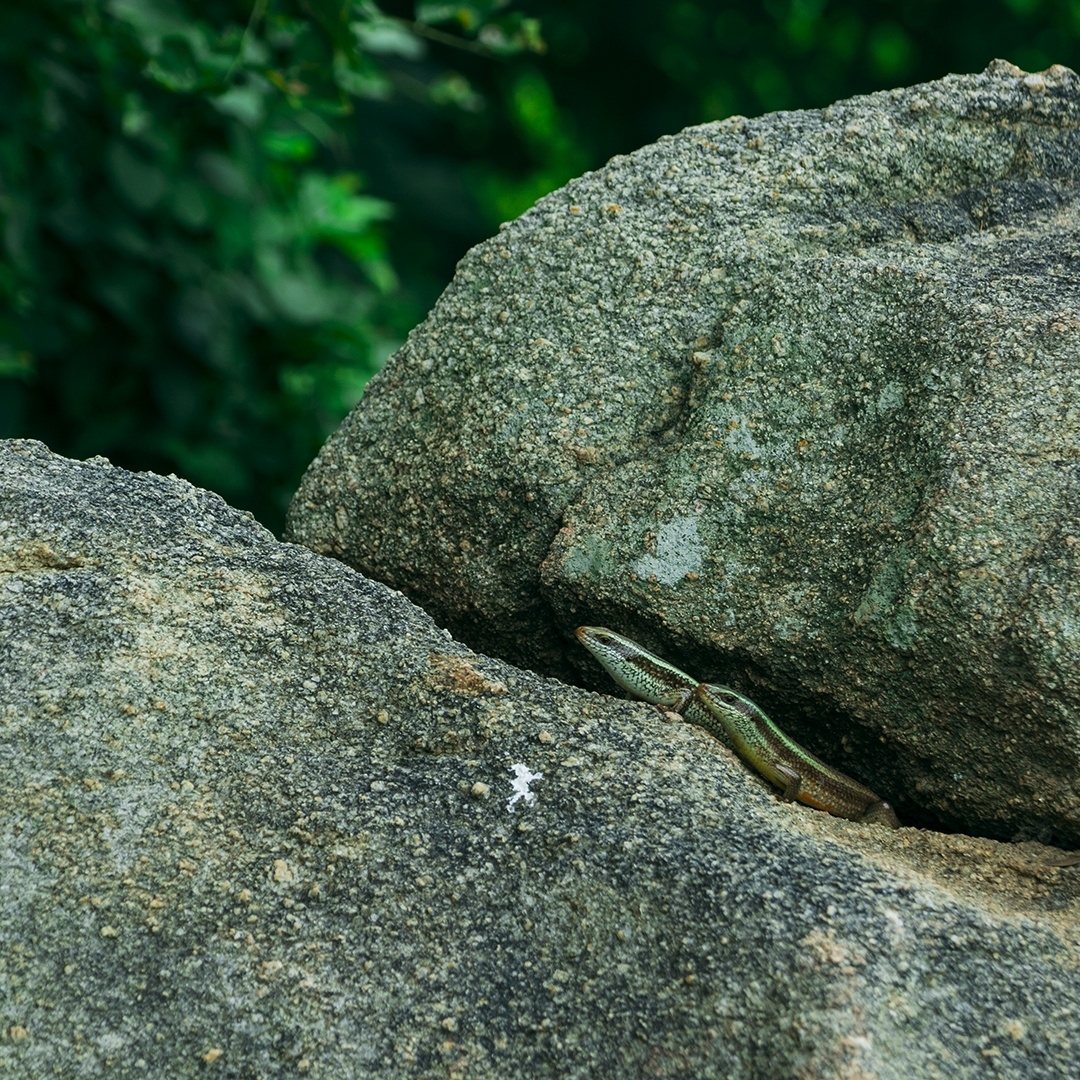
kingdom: Animalia
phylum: Chordata
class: Squamata
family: Scincidae
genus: Eutropis
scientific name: Eutropis carinata
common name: Keeled indian mabuya
